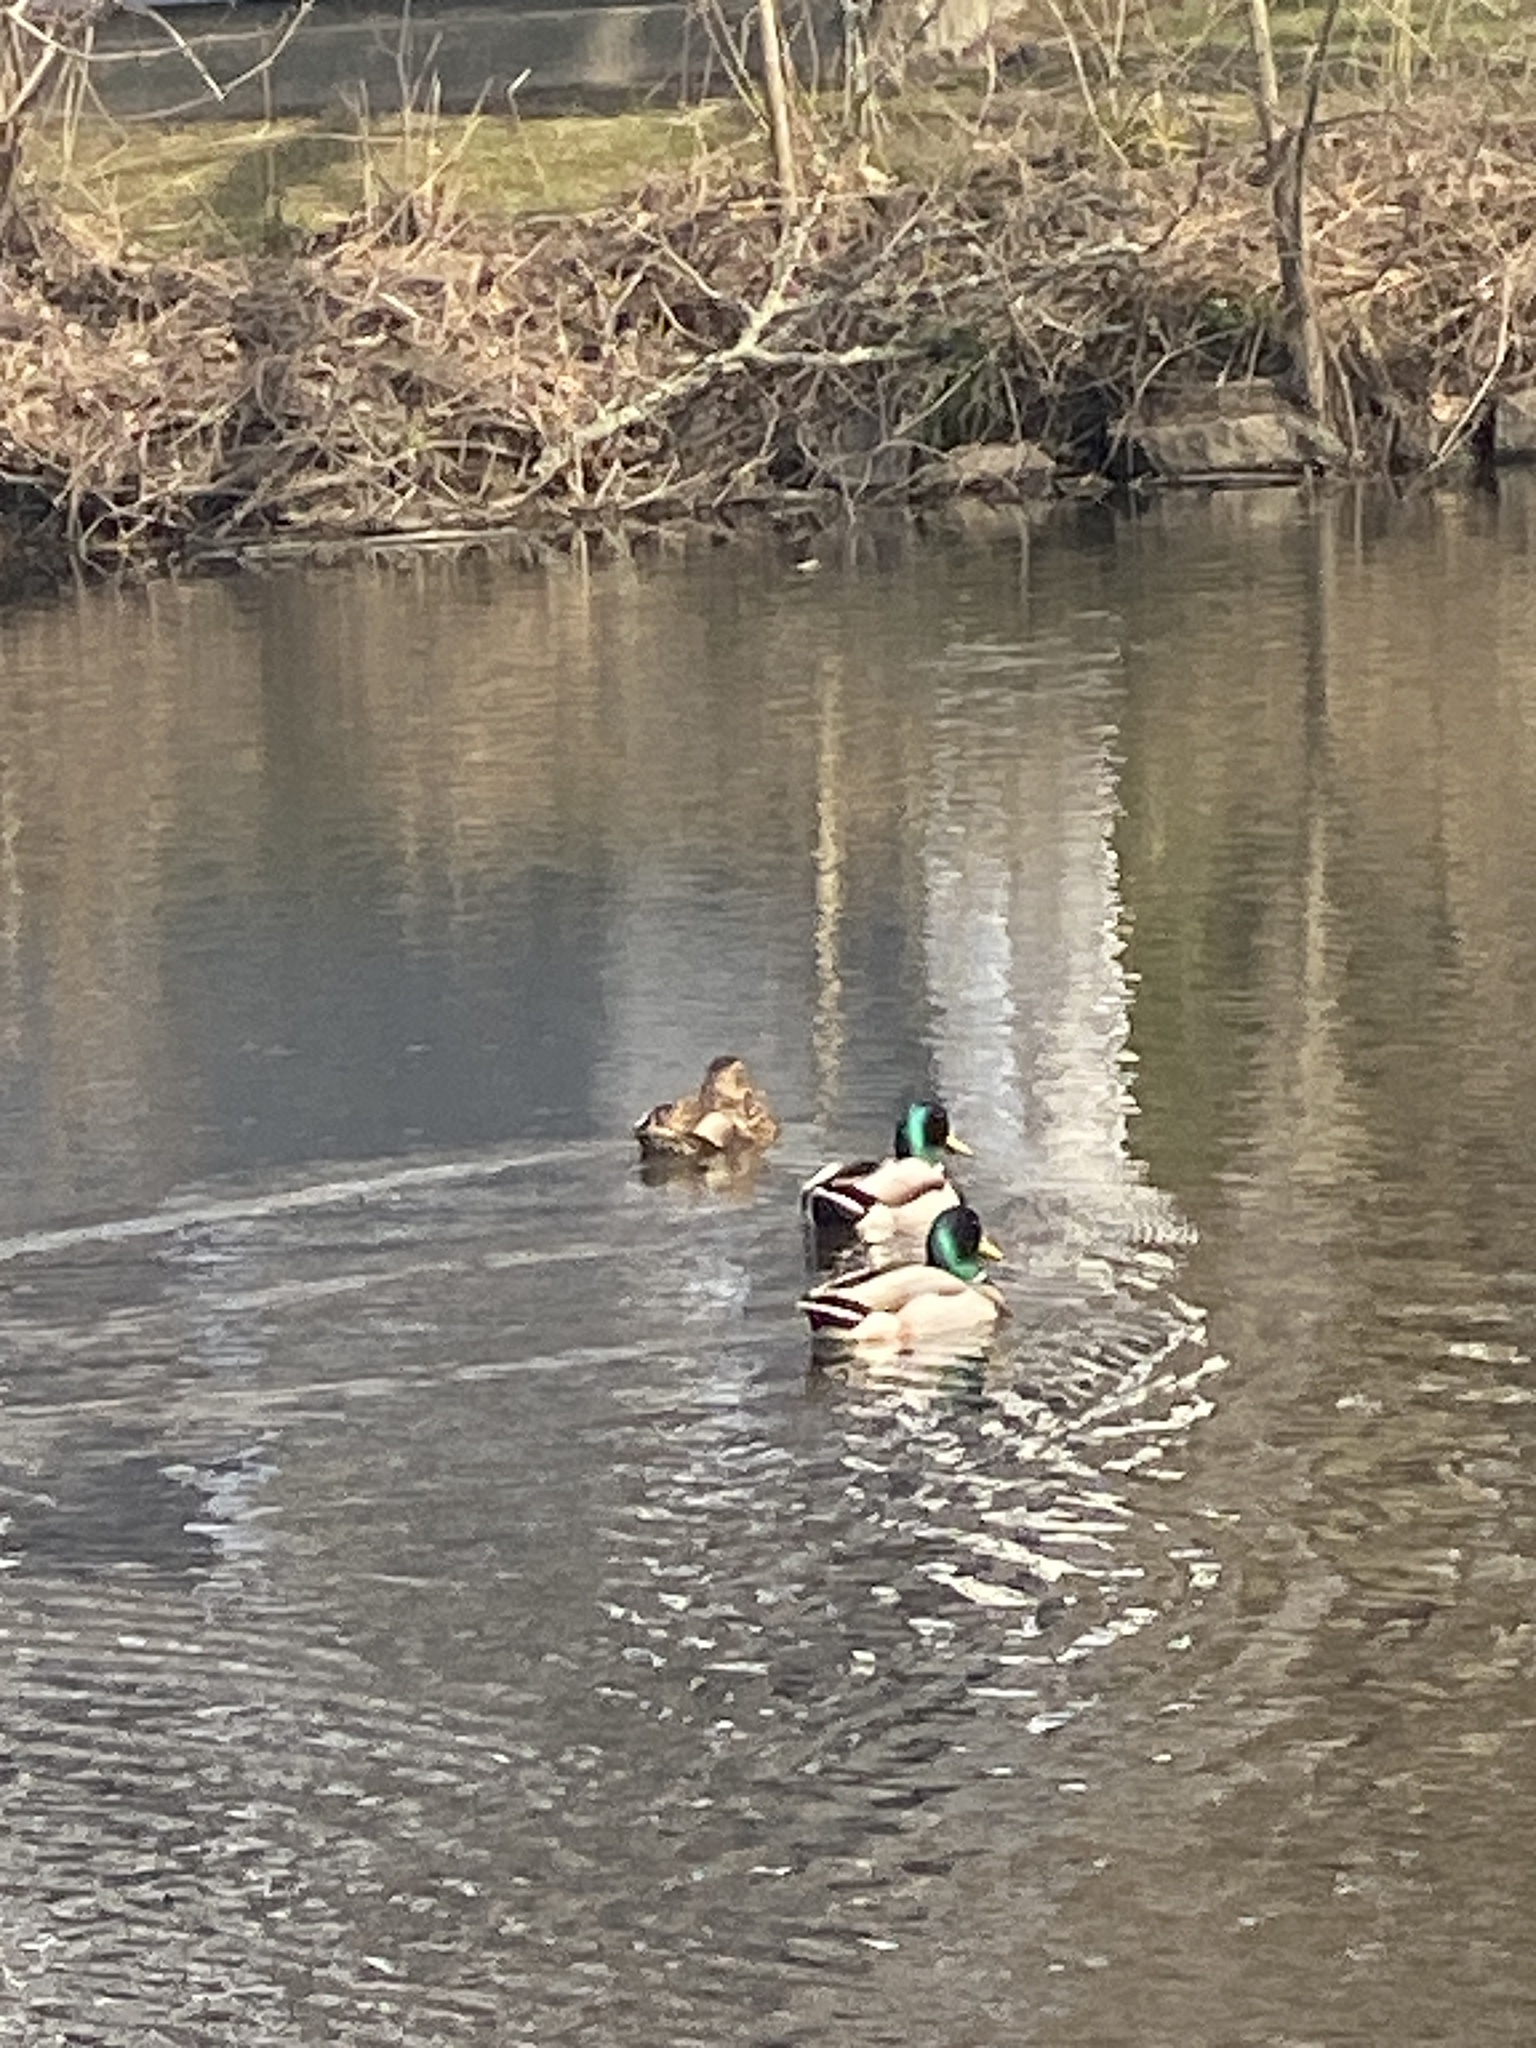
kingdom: Animalia
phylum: Chordata
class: Aves
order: Anseriformes
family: Anatidae
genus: Anas
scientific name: Anas platyrhynchos
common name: Mallard
